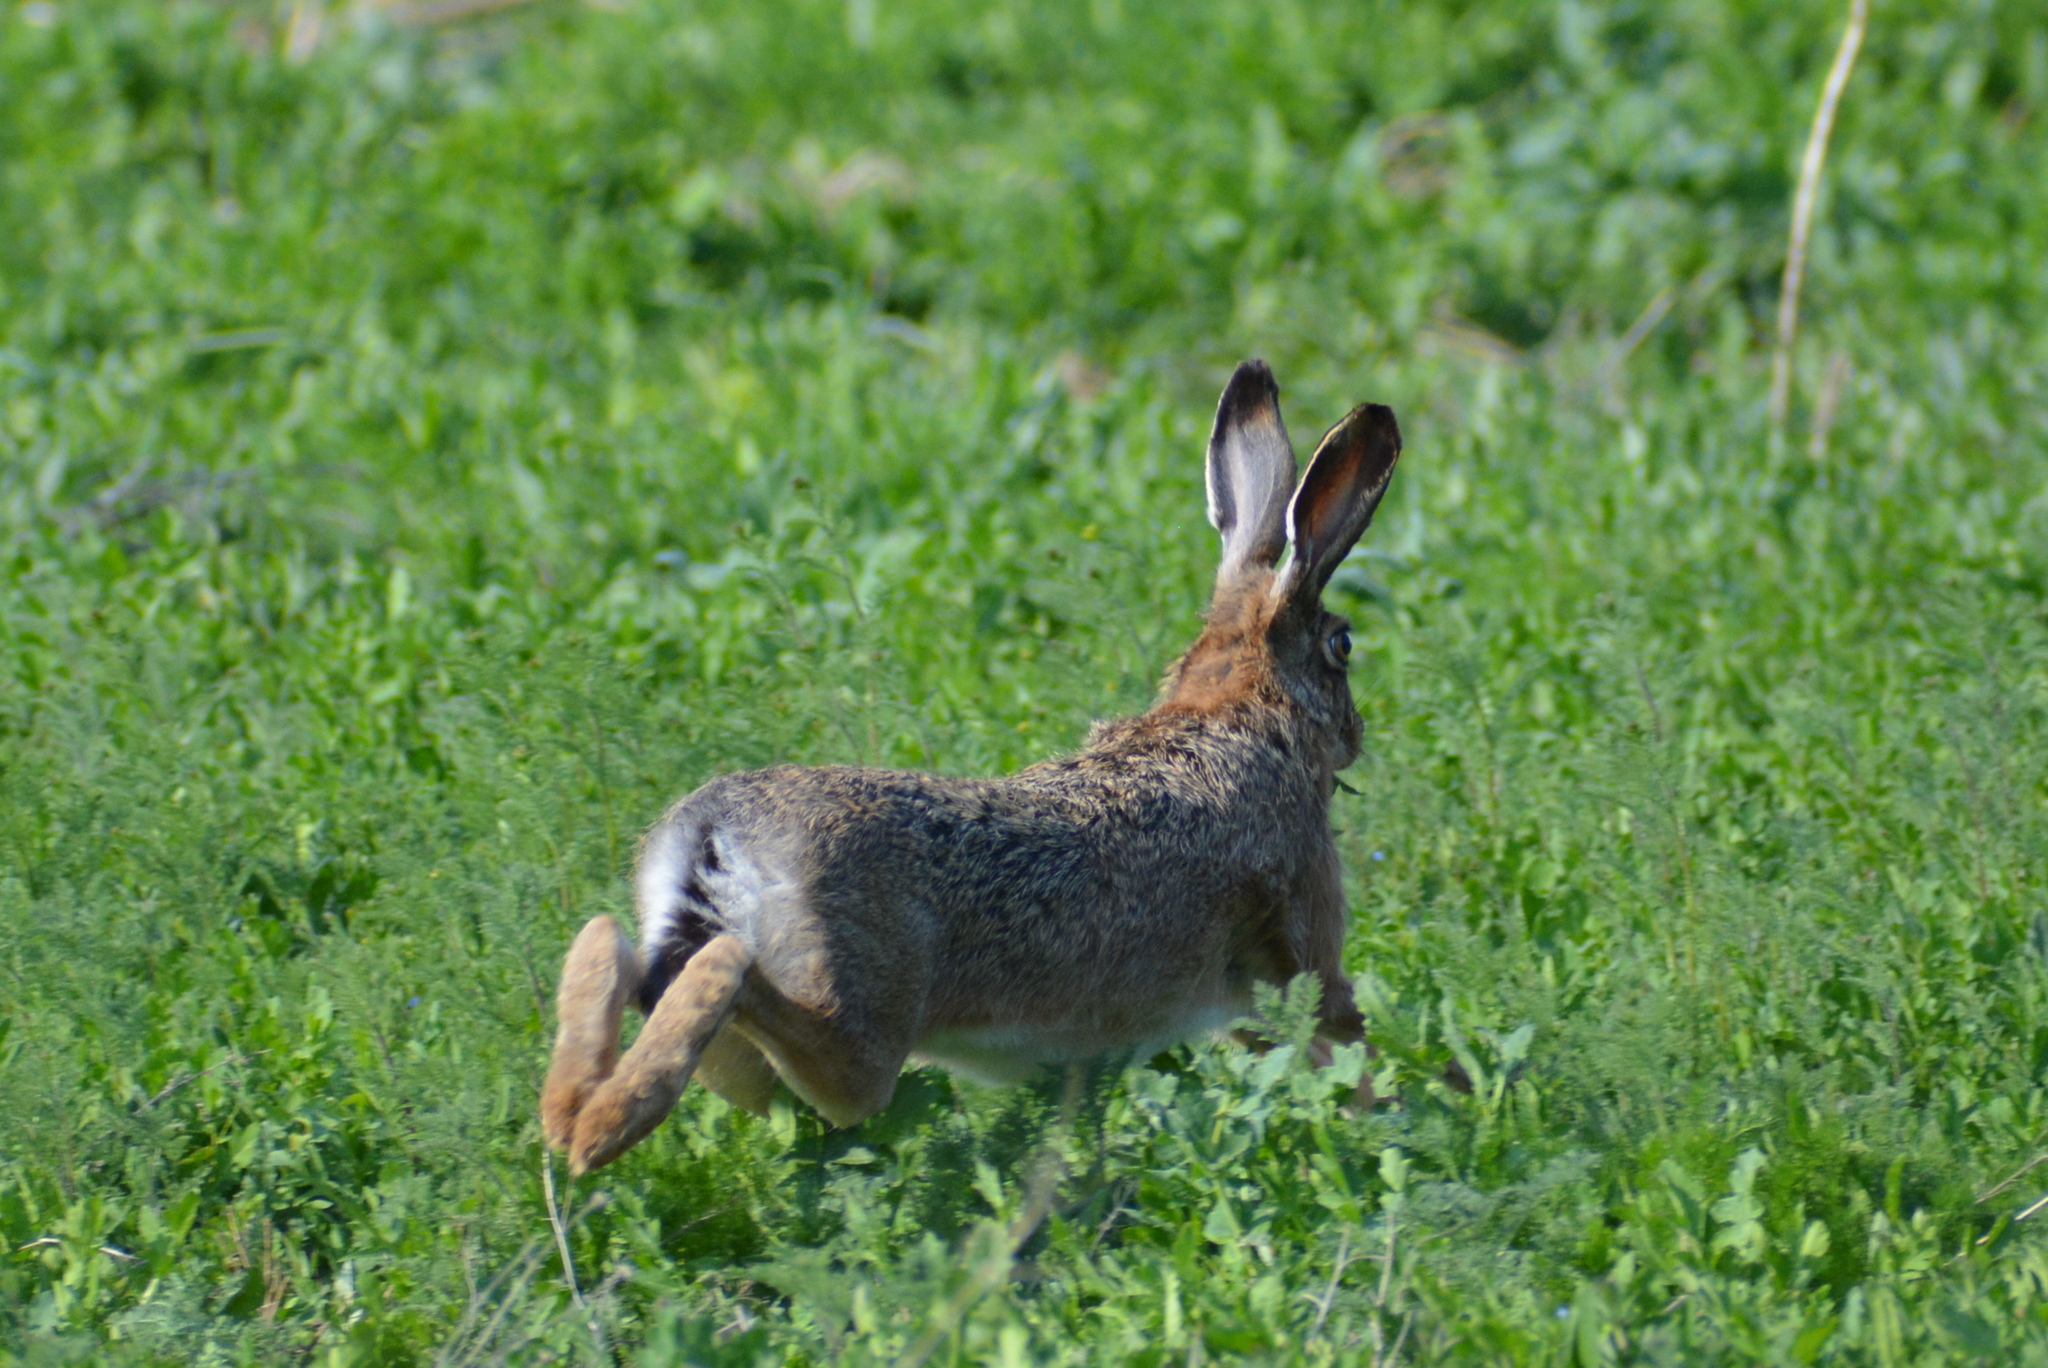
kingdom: Animalia
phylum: Chordata
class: Mammalia
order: Lagomorpha
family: Leporidae
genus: Lepus
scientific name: Lepus europaeus
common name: European hare
